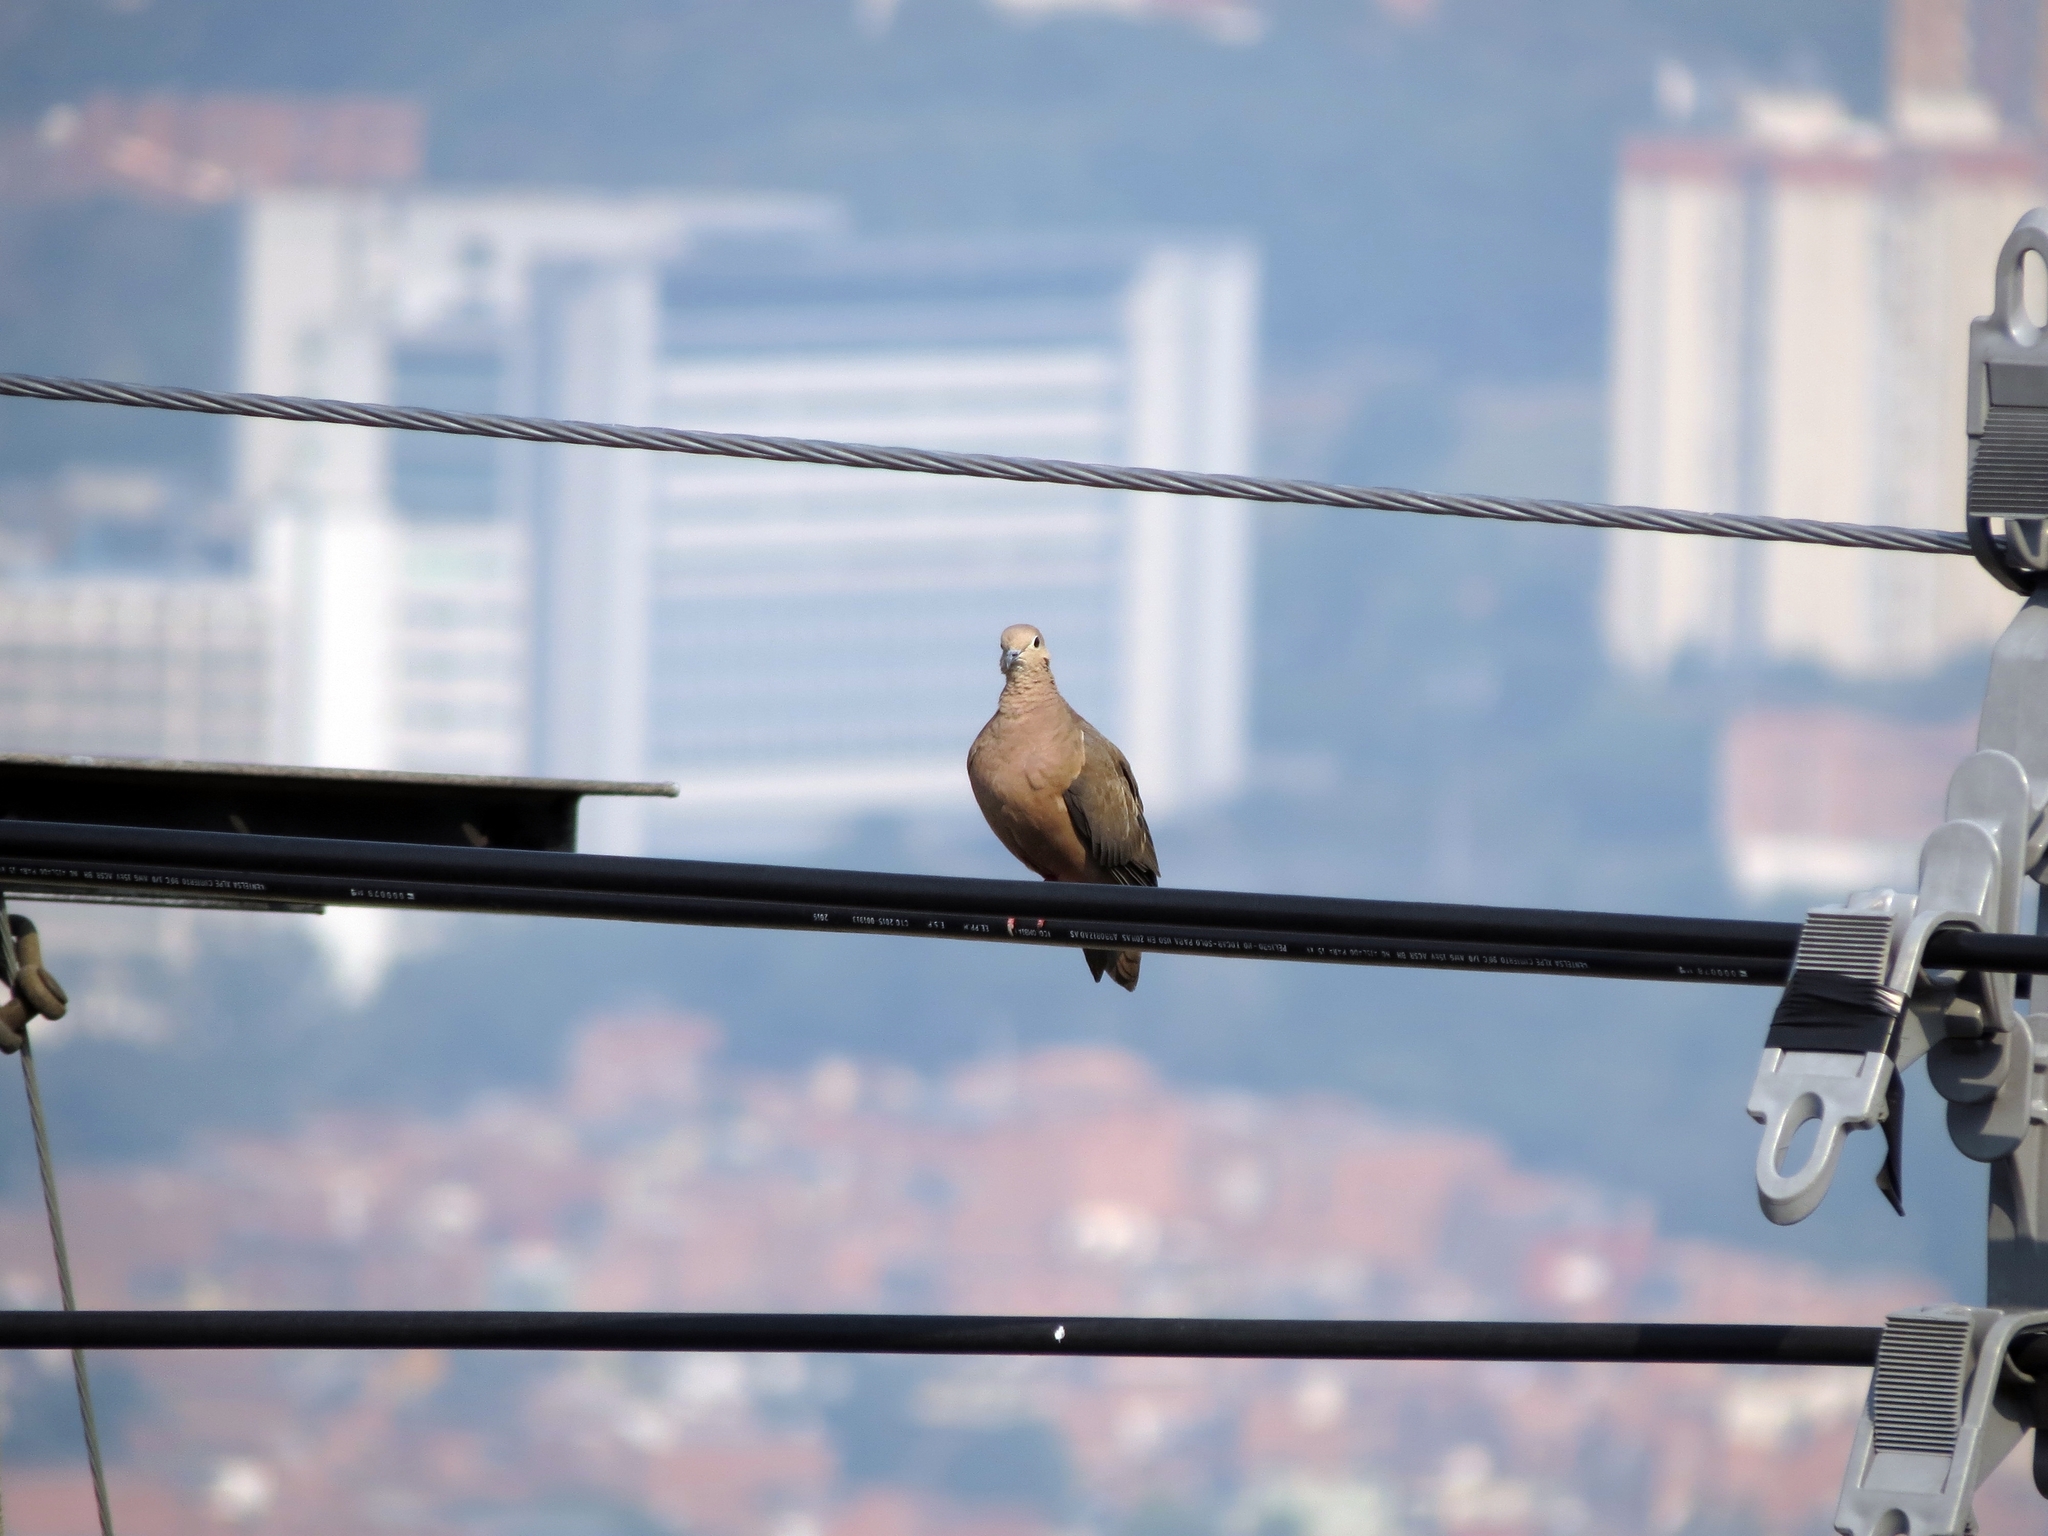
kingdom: Animalia
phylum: Chordata
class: Aves
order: Columbiformes
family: Columbidae
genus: Zenaida
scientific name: Zenaida auriculata
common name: Eared dove
